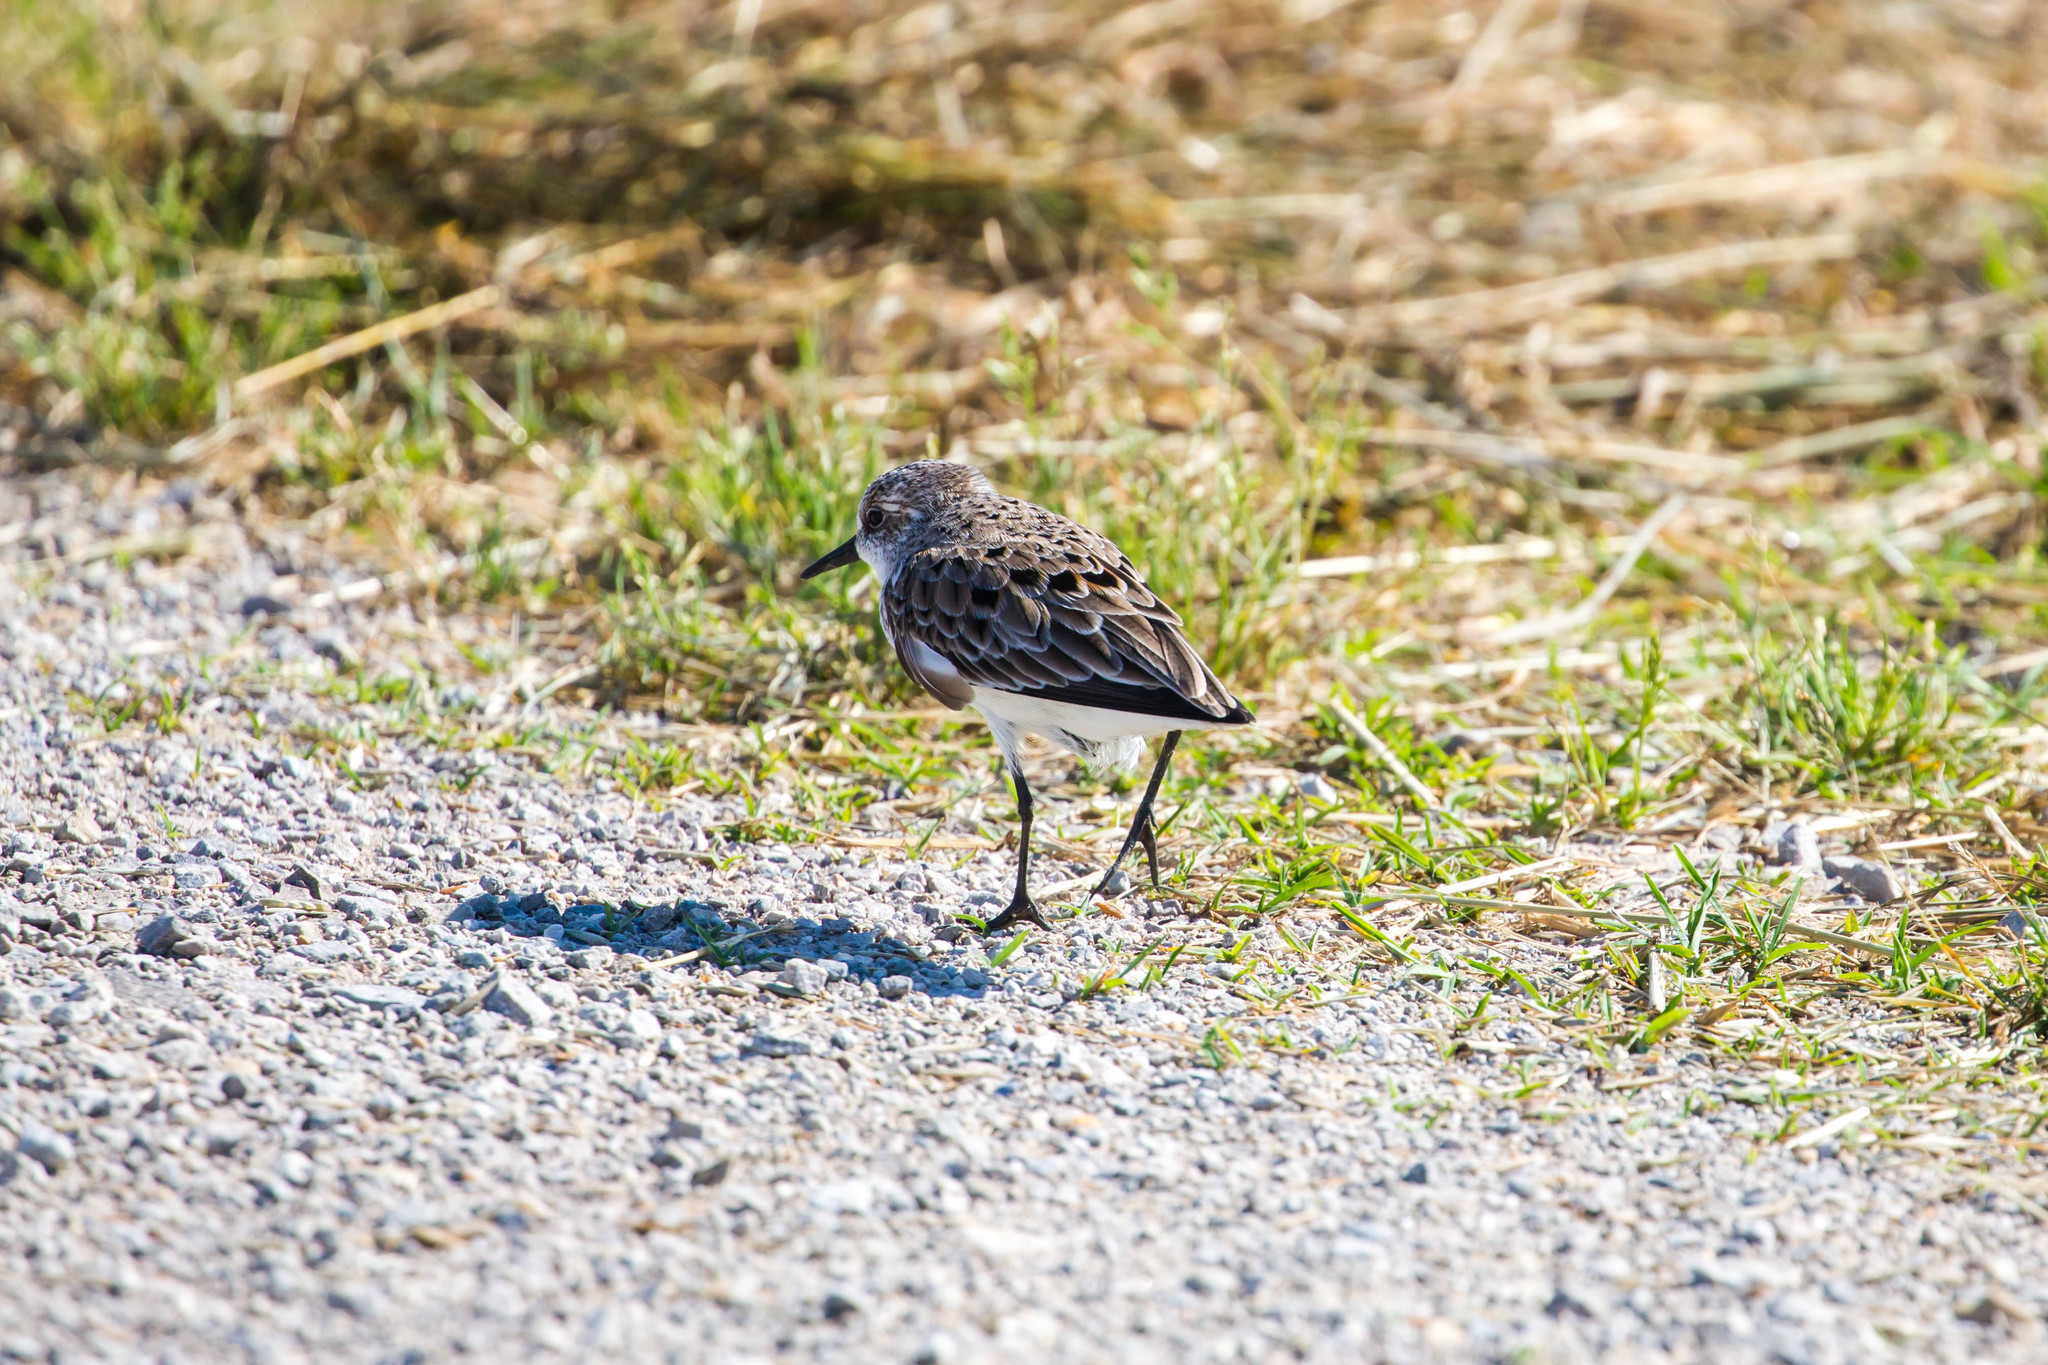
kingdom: Animalia
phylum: Chordata
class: Aves
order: Charadriiformes
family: Scolopacidae
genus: Calidris
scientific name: Calidris pusilla
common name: Semipalmated sandpiper
